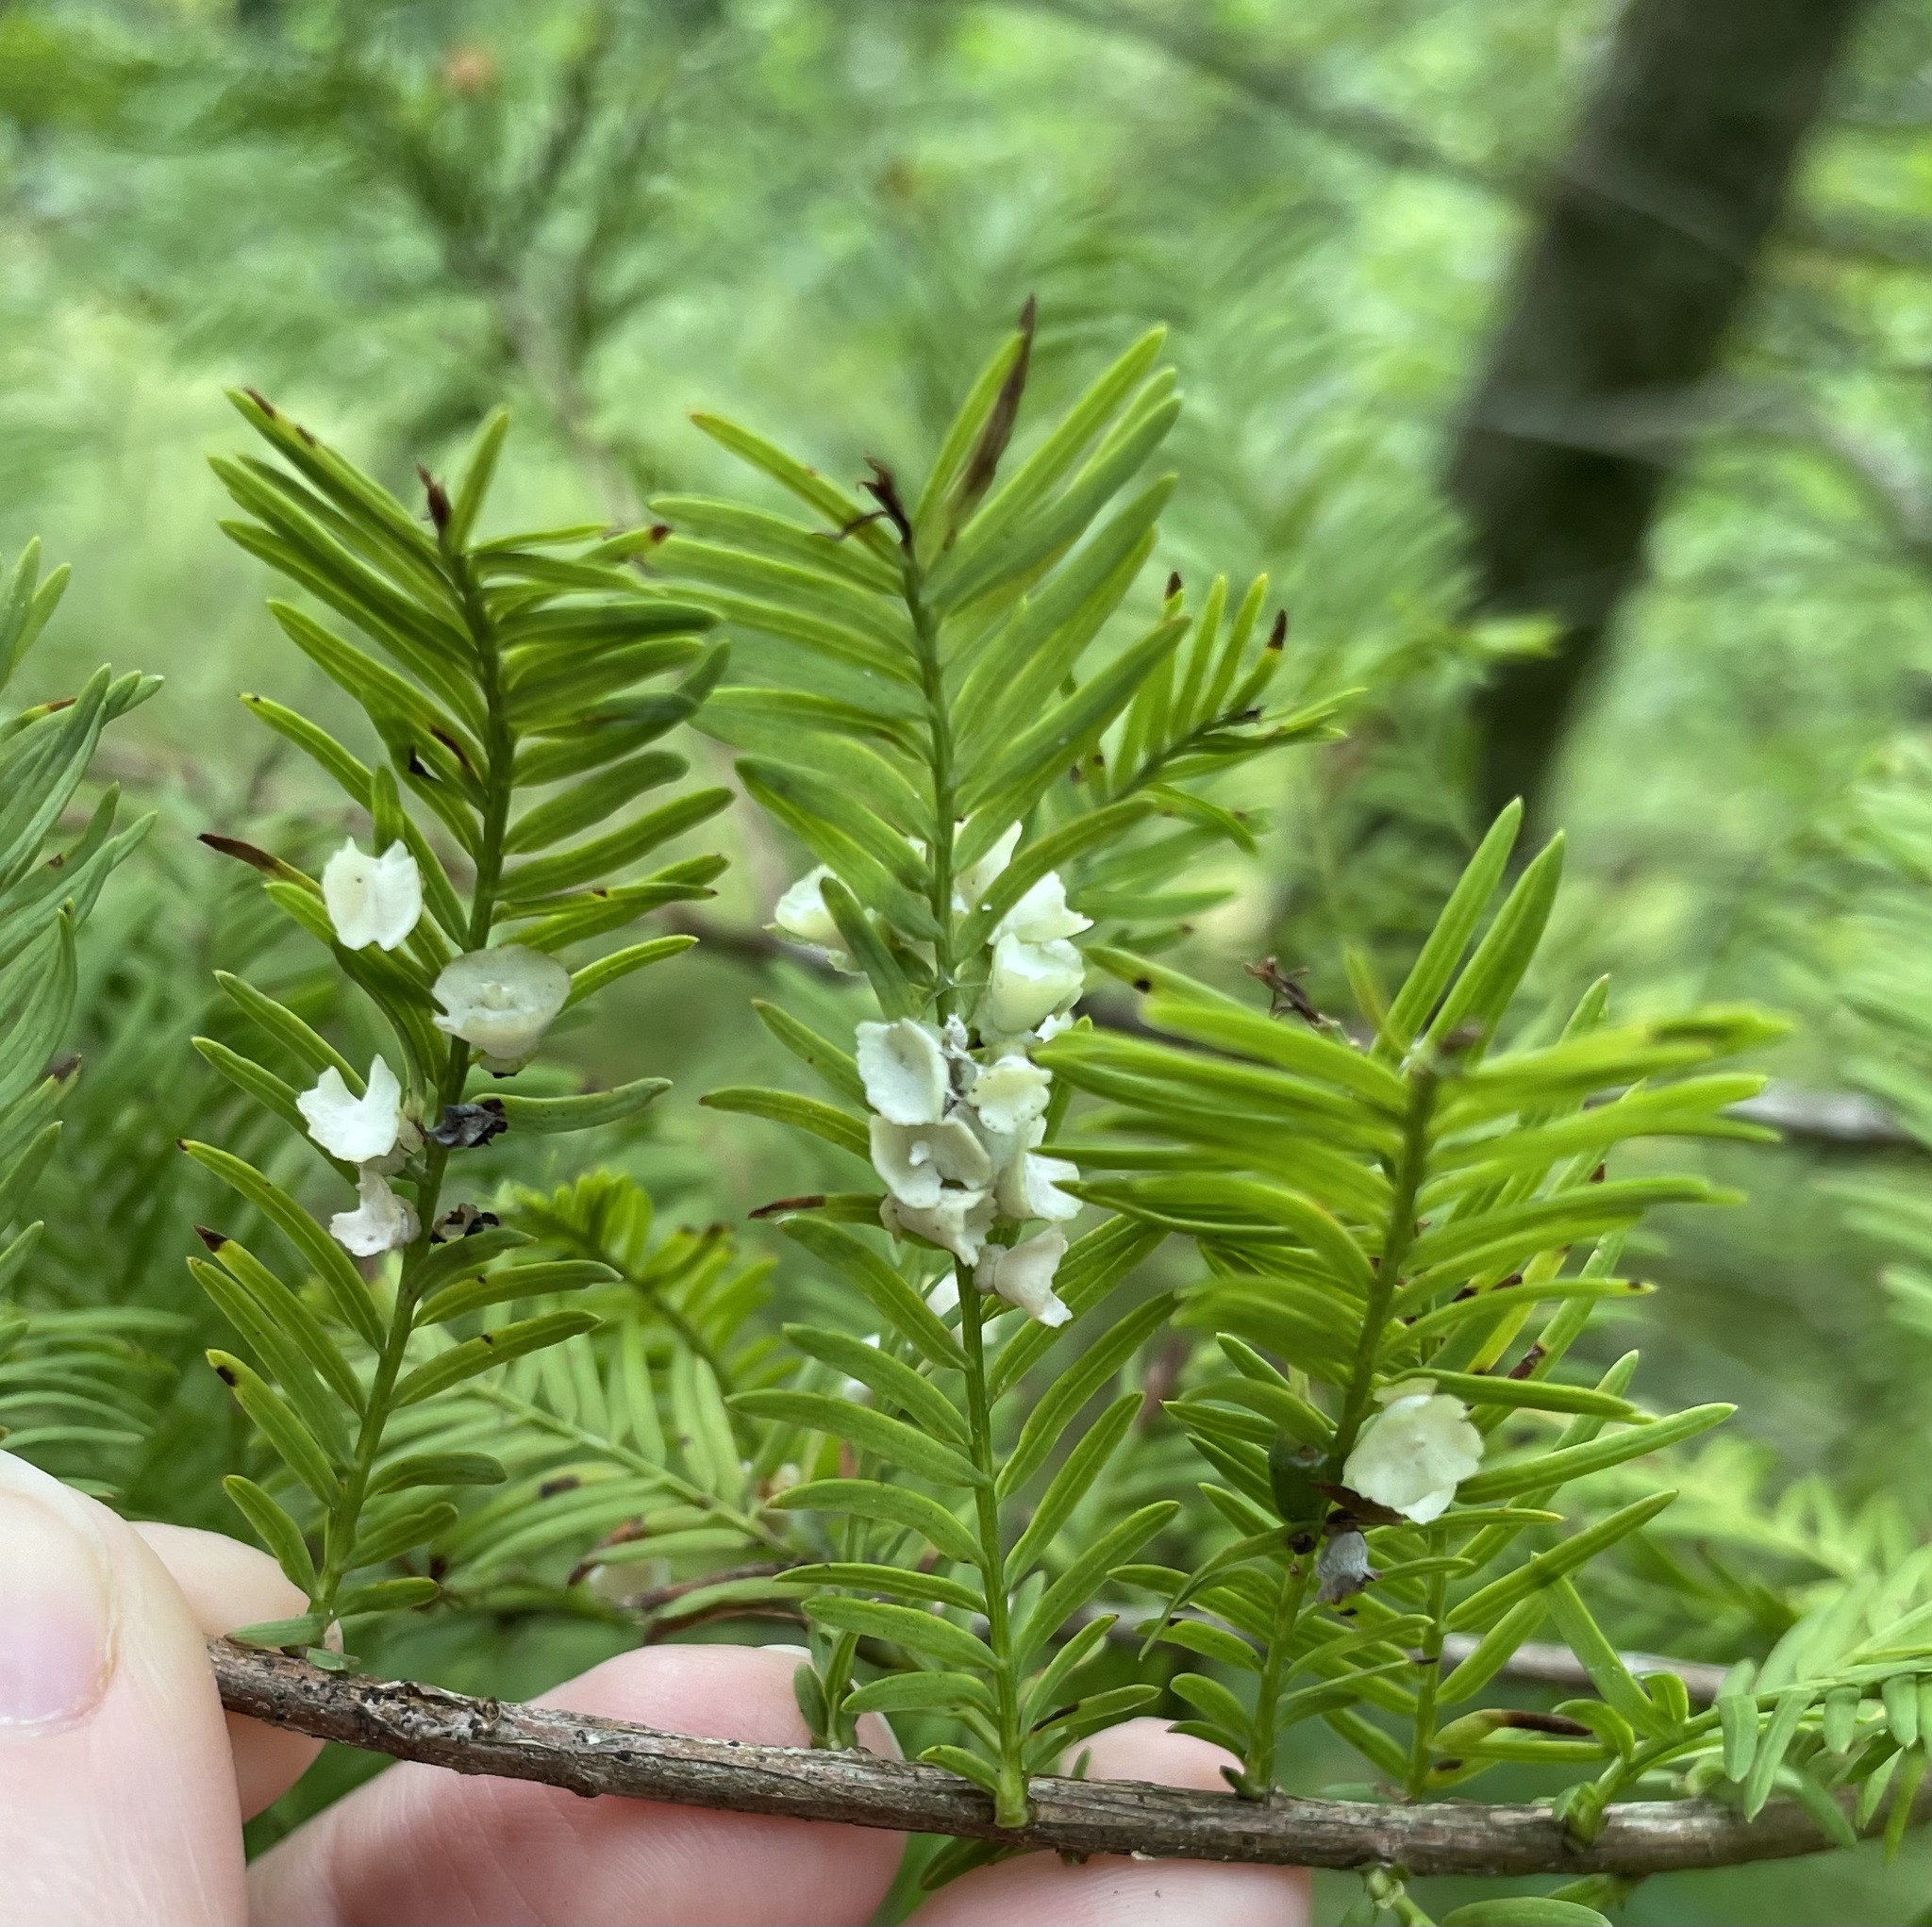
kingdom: Animalia
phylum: Arthropoda
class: Insecta
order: Diptera
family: Cecidomyiidae
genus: Taxodiomyia
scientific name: Taxodiomyia cupressi
